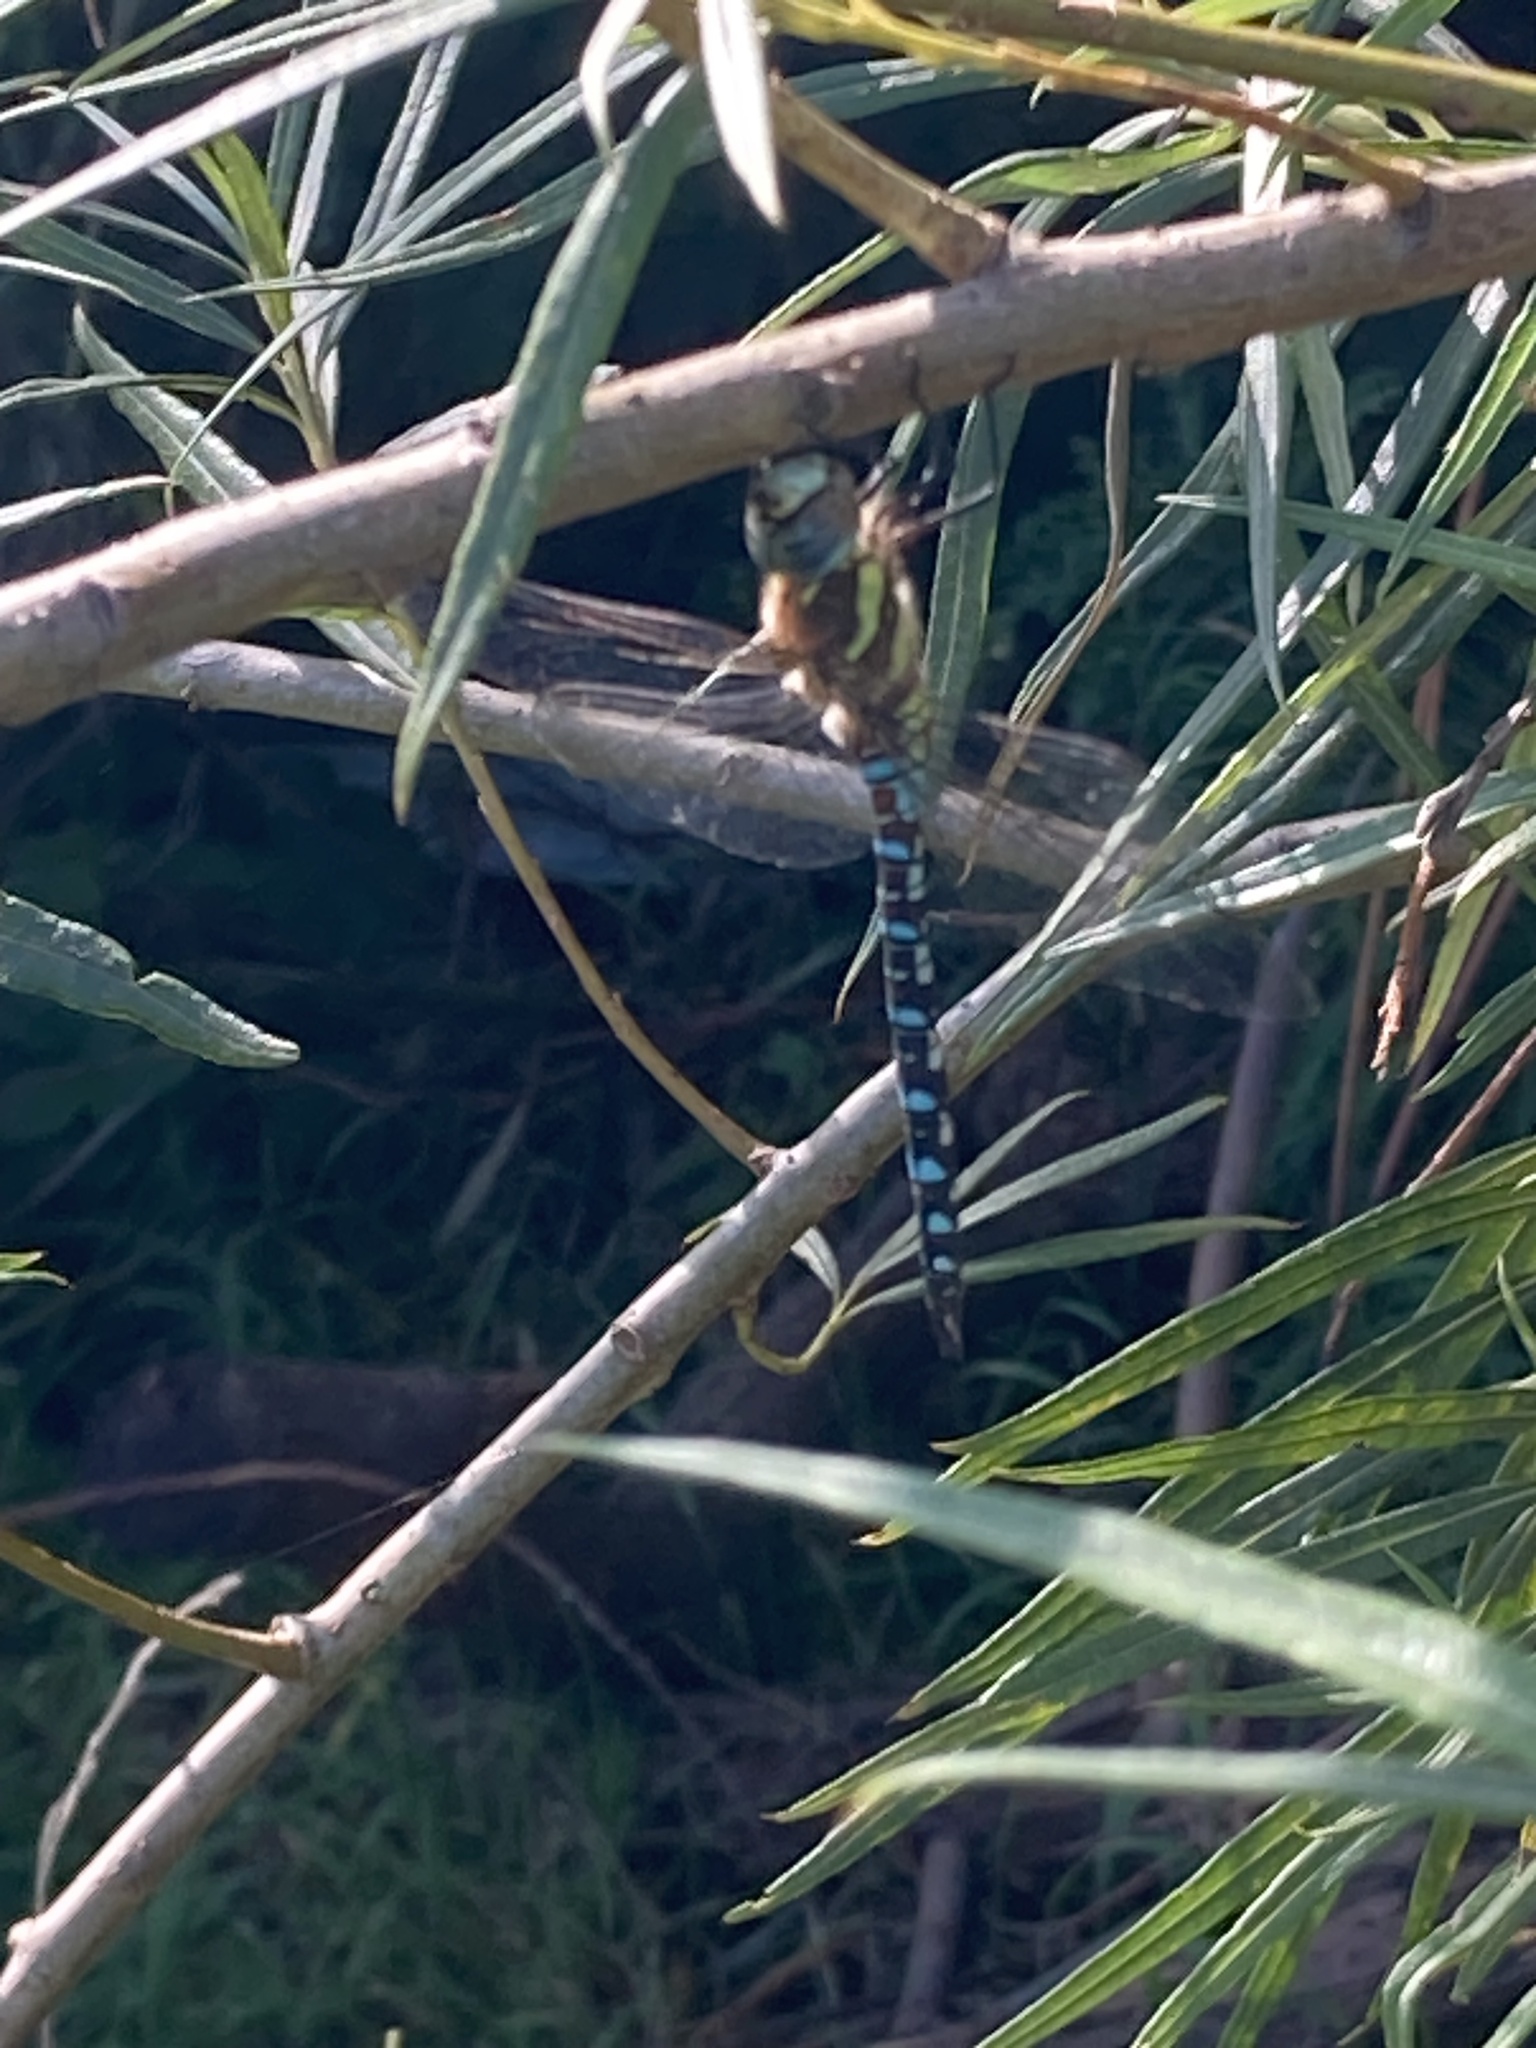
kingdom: Animalia
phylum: Arthropoda
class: Insecta
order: Odonata
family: Aeshnidae
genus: Aeshna
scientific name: Aeshna mixta
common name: Migrant hawker
